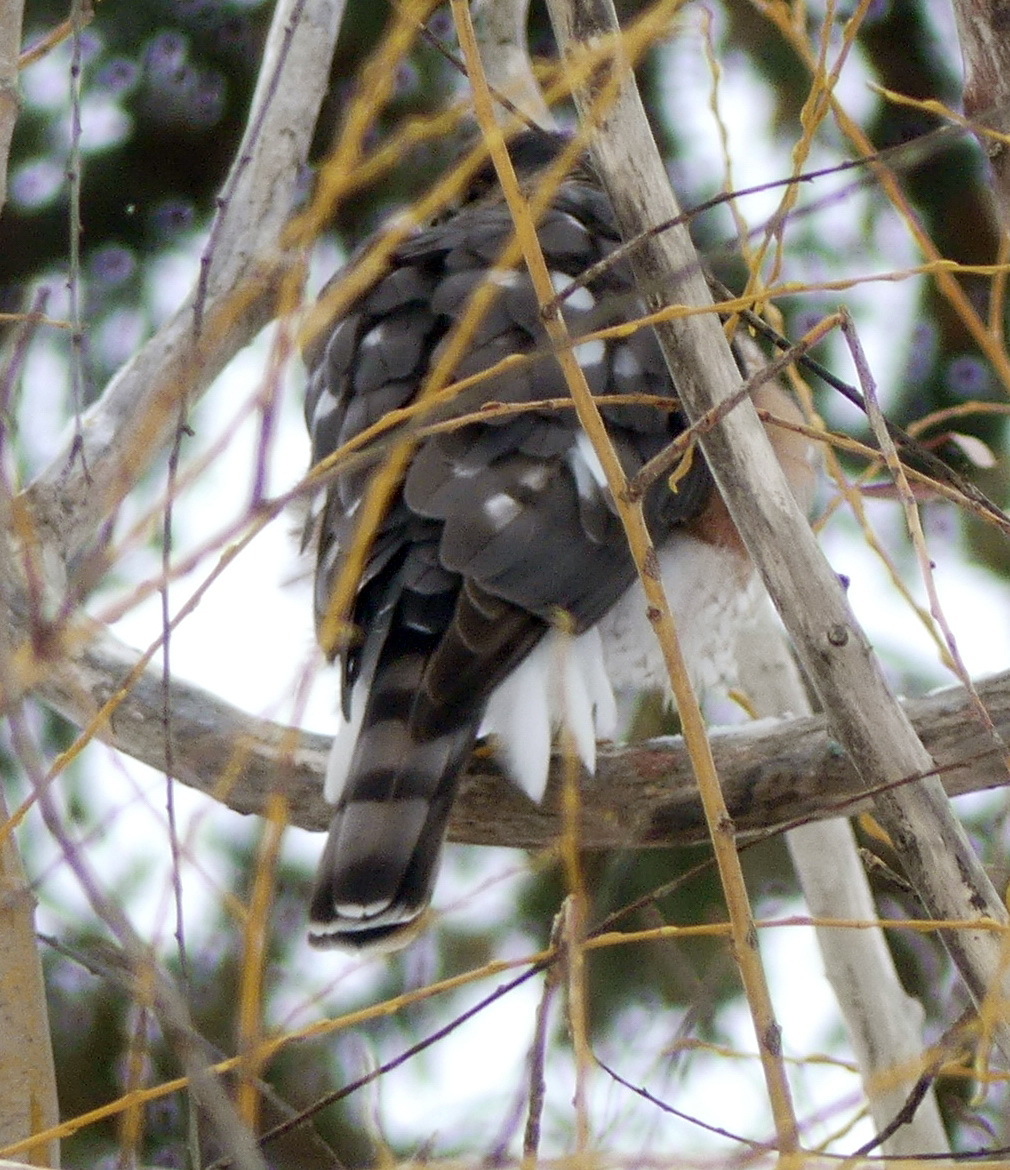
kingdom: Animalia
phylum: Chordata
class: Aves
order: Accipitriformes
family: Accipitridae
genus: Accipiter
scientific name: Accipiter striatus
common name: Sharp-shinned hawk
